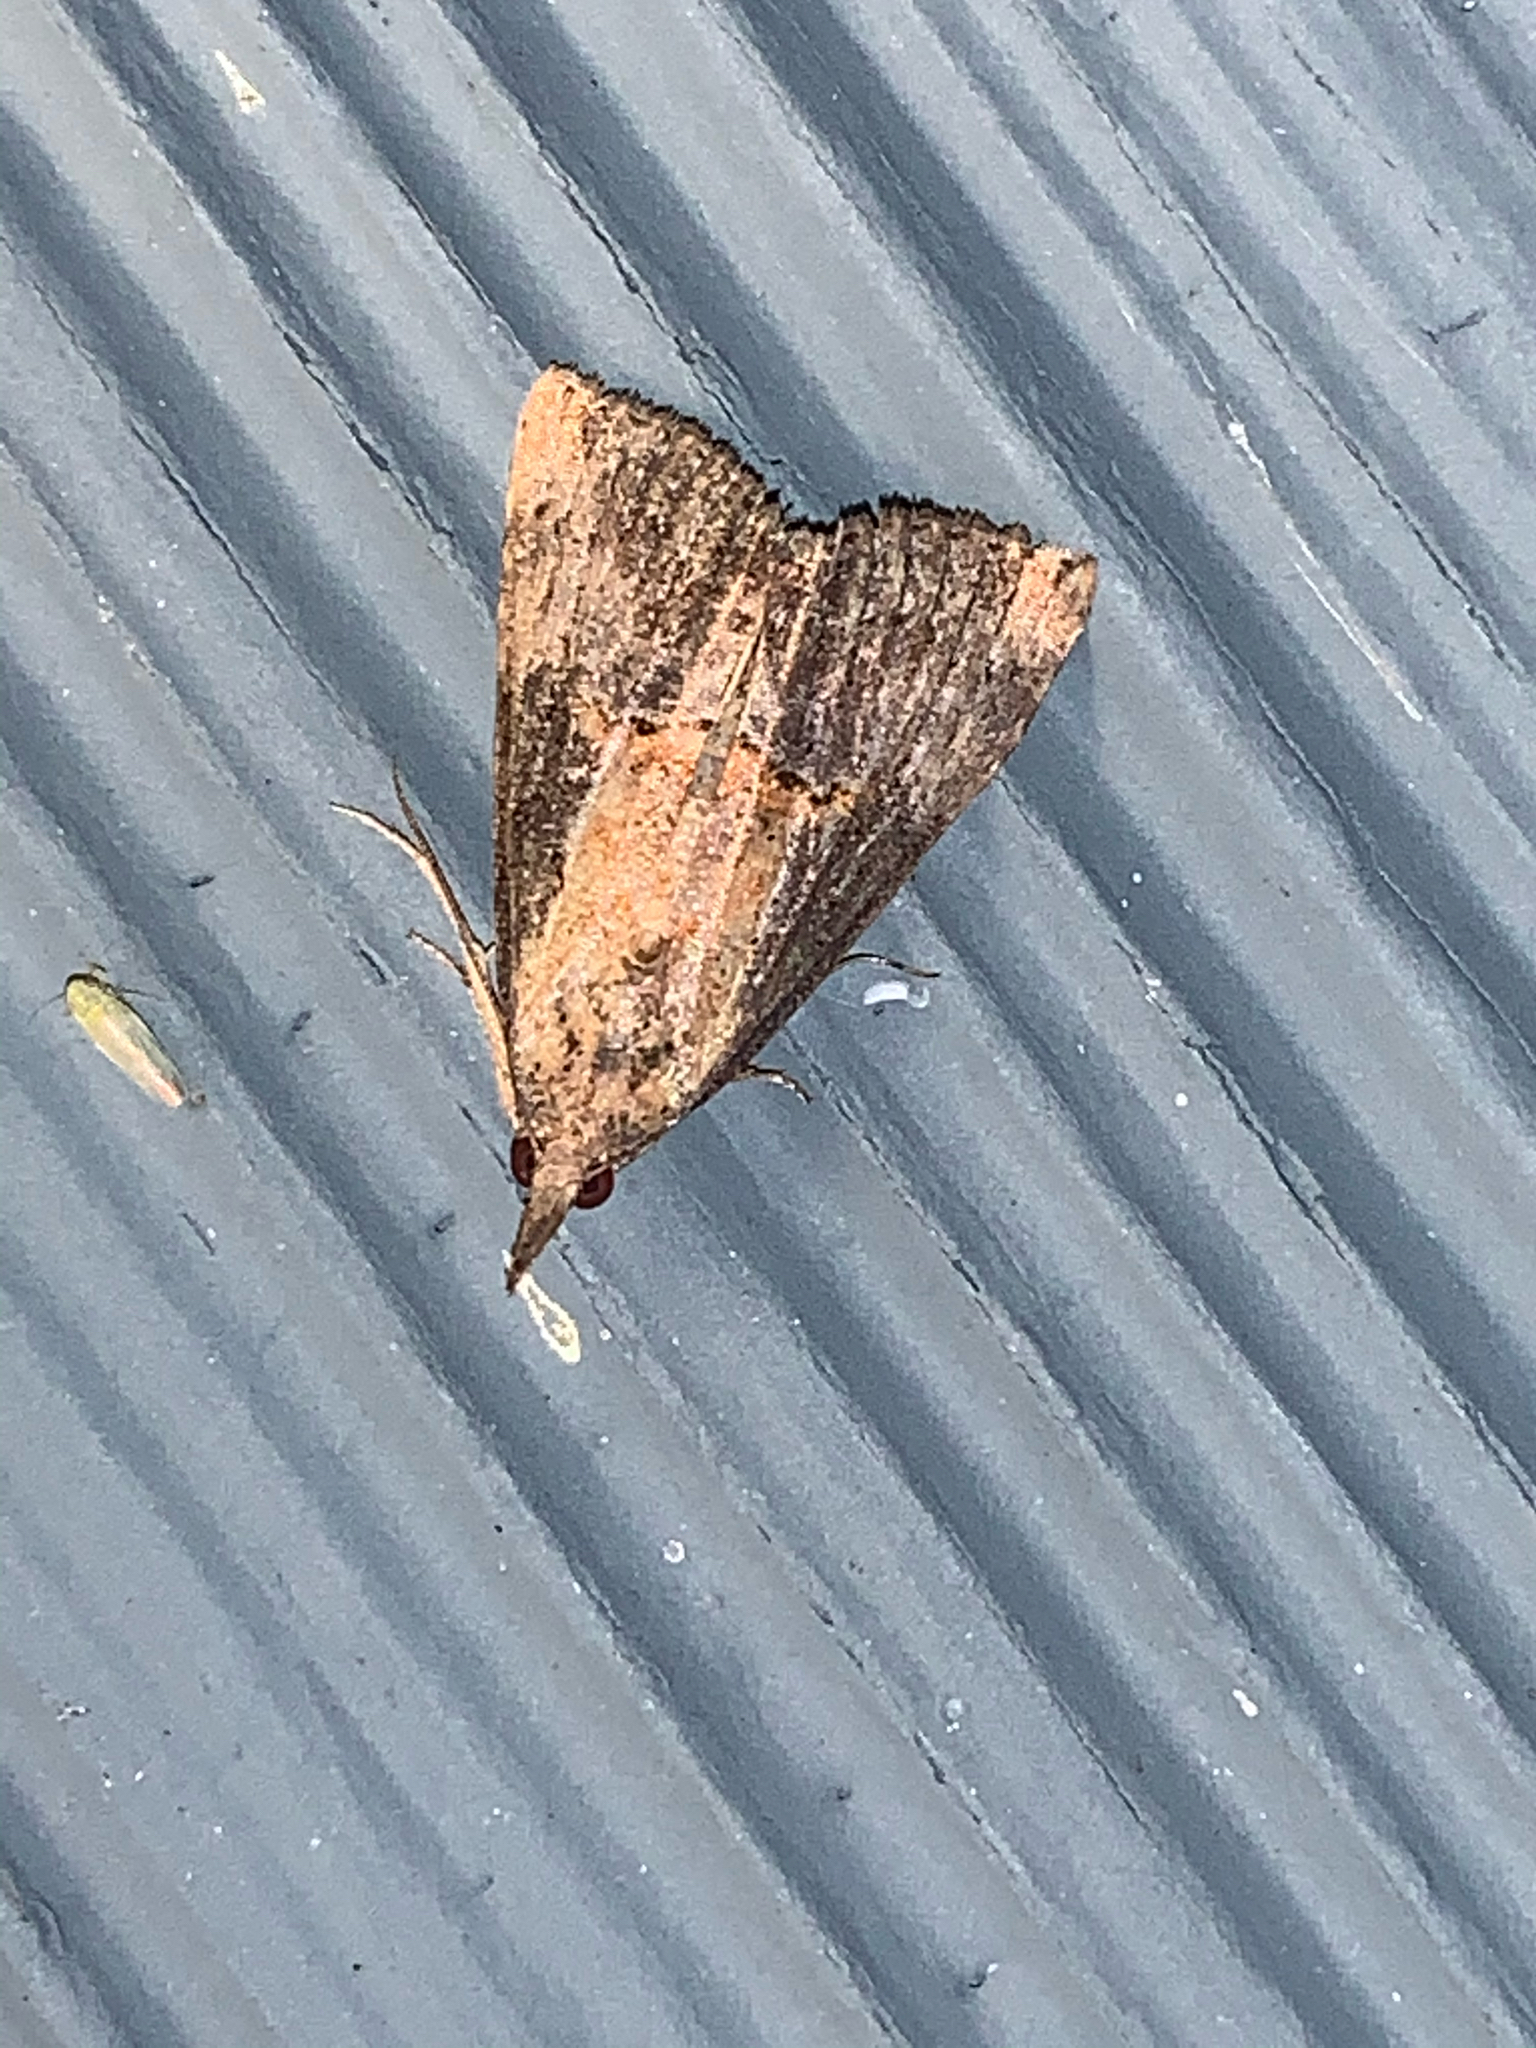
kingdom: Animalia
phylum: Arthropoda
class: Insecta
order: Lepidoptera
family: Erebidae
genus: Hypena
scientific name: Hypena scabra
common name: Green cloverworm
